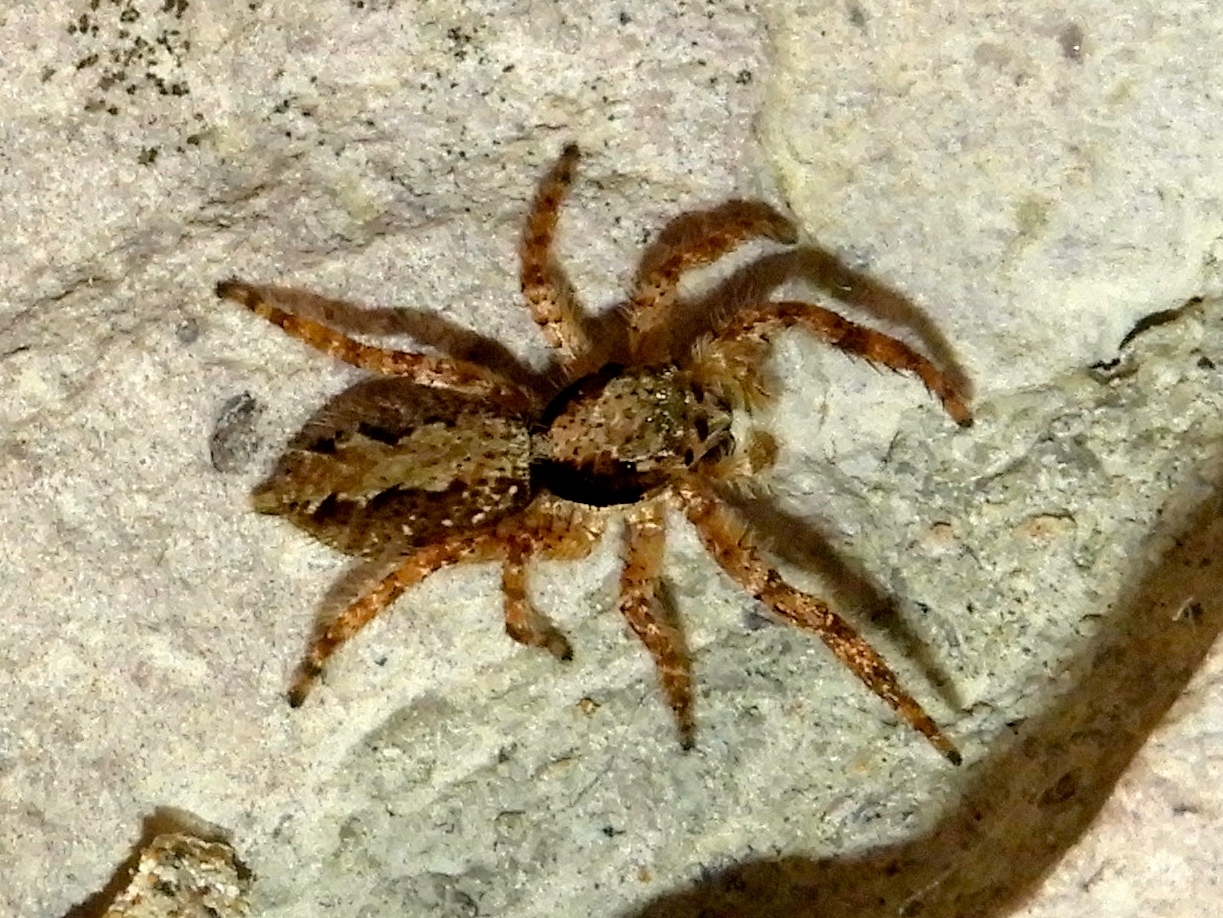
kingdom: Animalia
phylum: Arthropoda
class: Arachnida
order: Araneae
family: Salticidae
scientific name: Salticidae
